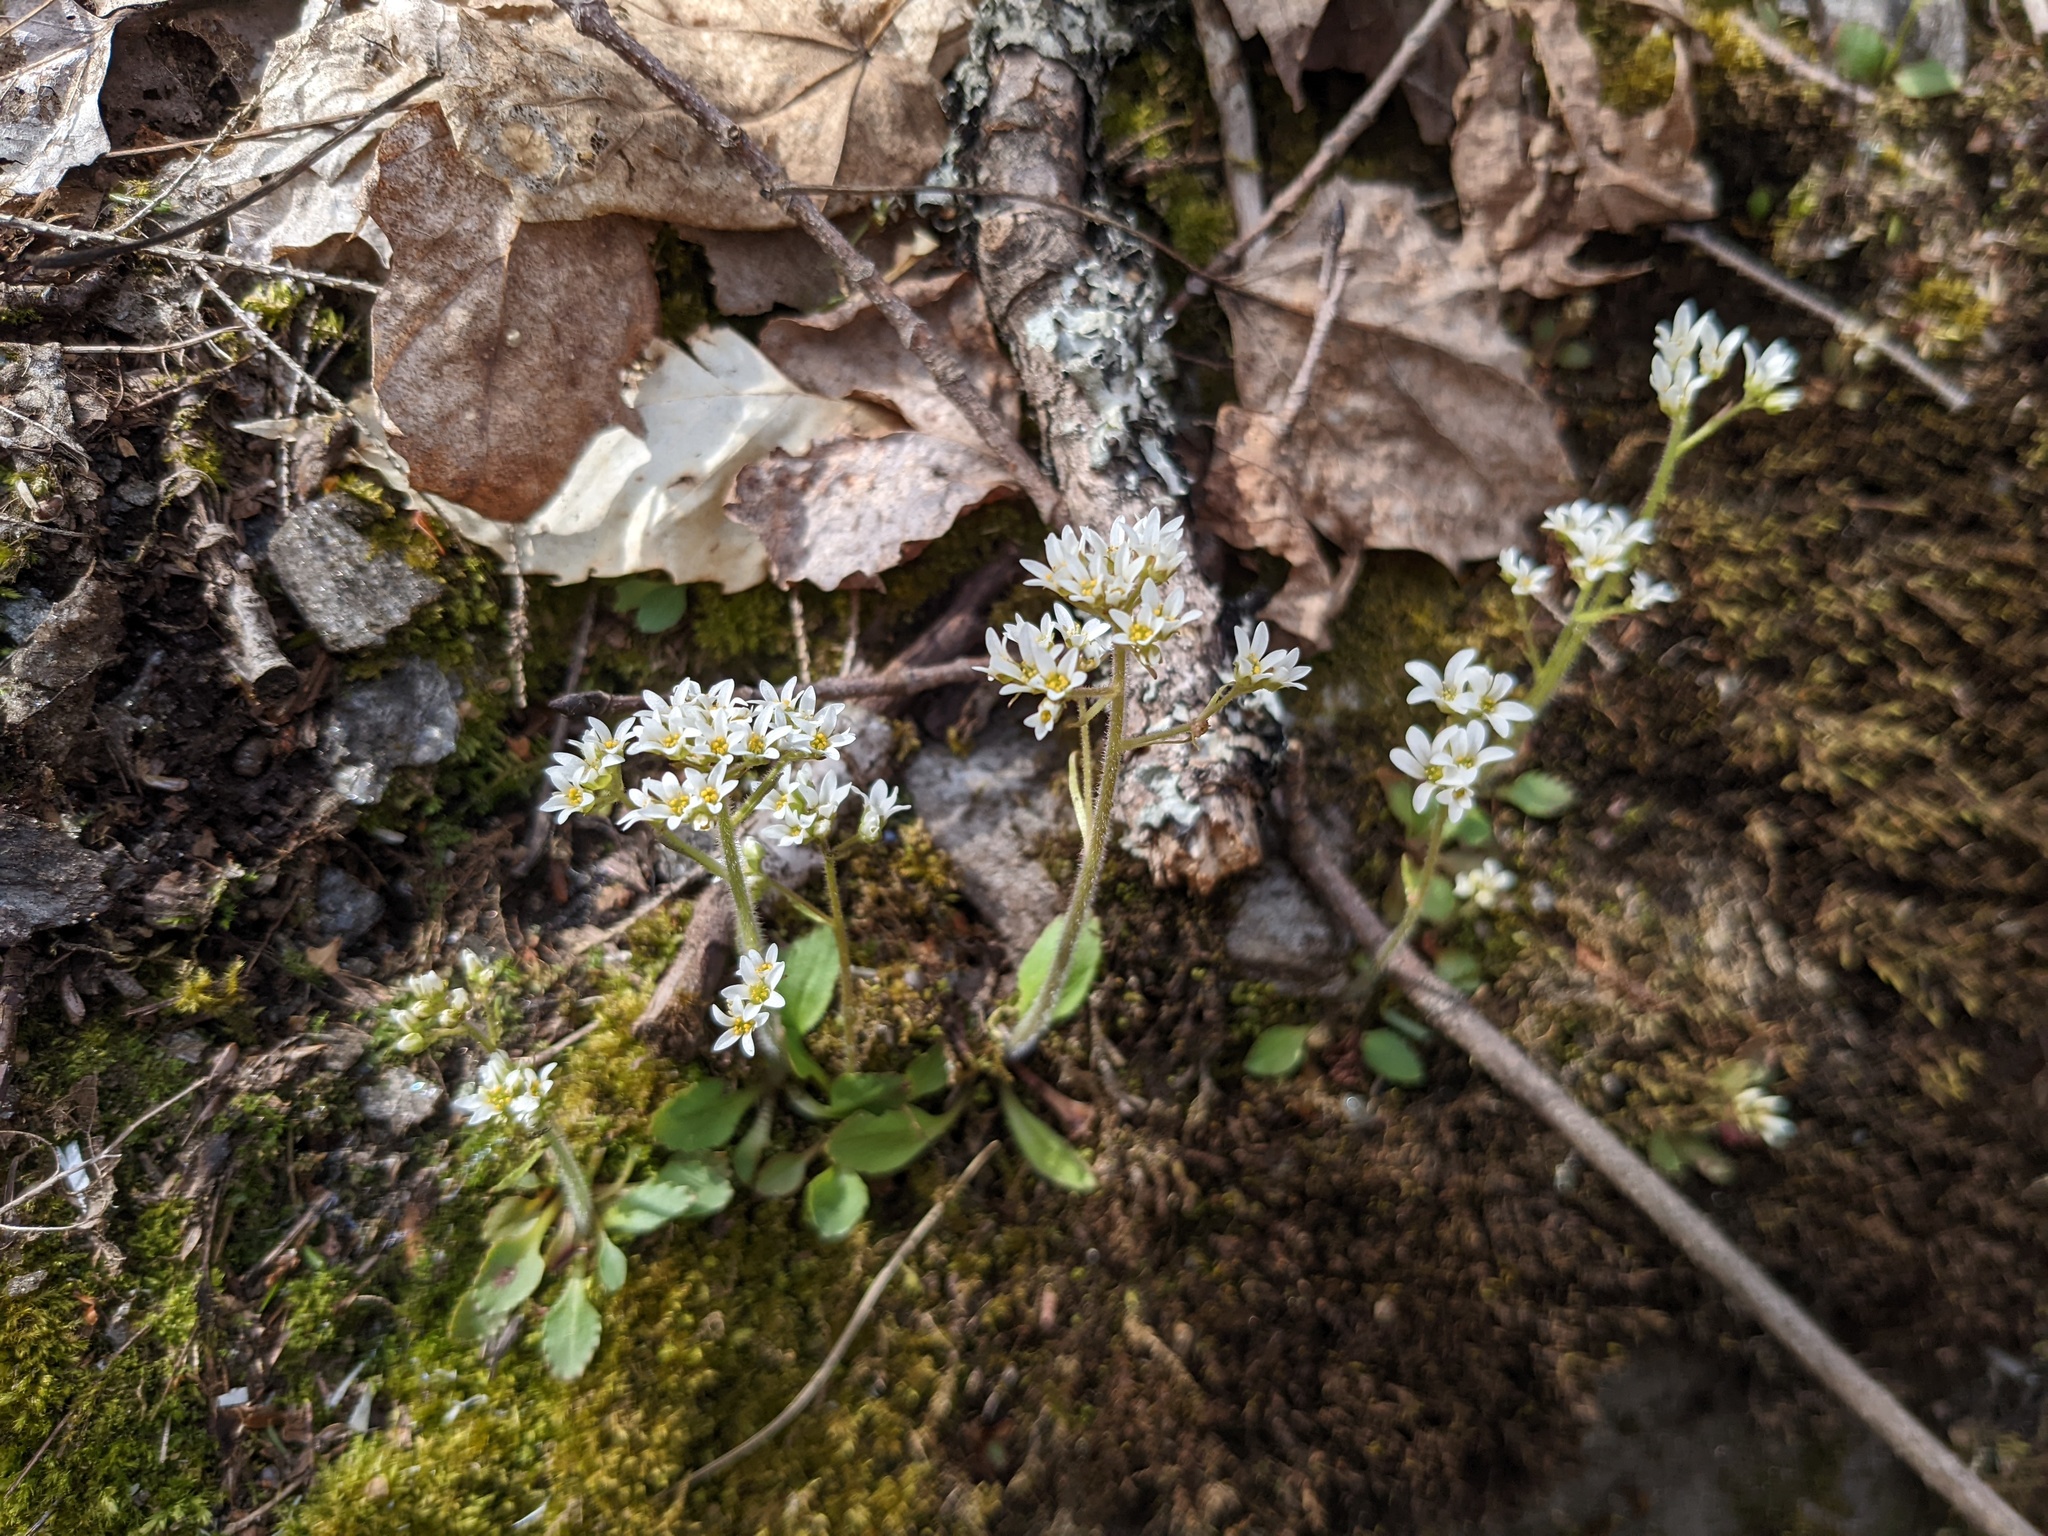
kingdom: Plantae
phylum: Tracheophyta
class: Magnoliopsida
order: Saxifragales
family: Saxifragaceae
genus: Micranthes
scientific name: Micranthes virginiensis
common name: Early saxifrage
